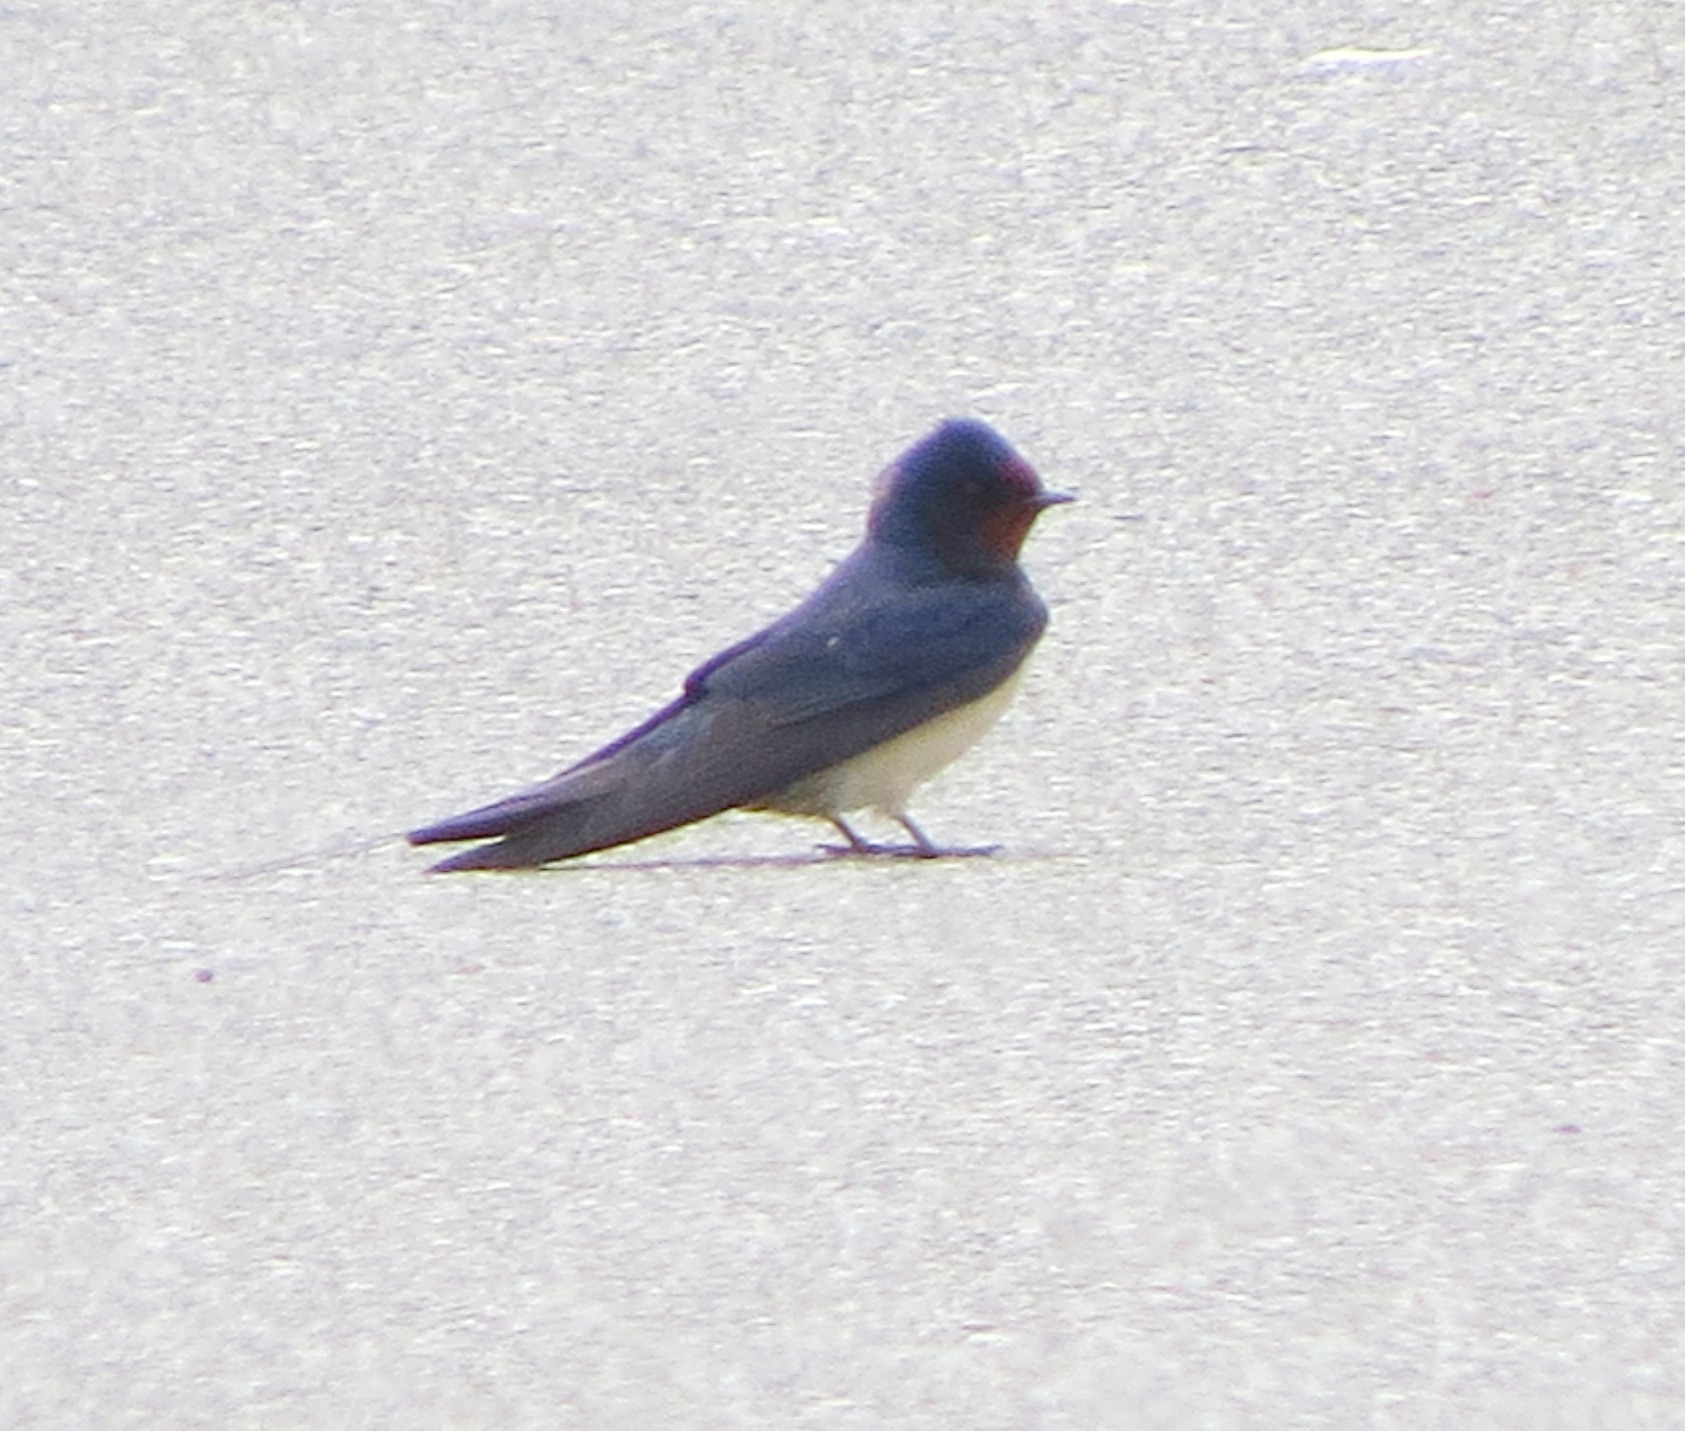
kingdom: Animalia
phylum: Chordata
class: Aves
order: Passeriformes
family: Hirundinidae
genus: Hirundo
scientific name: Hirundo rustica
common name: Barn swallow
